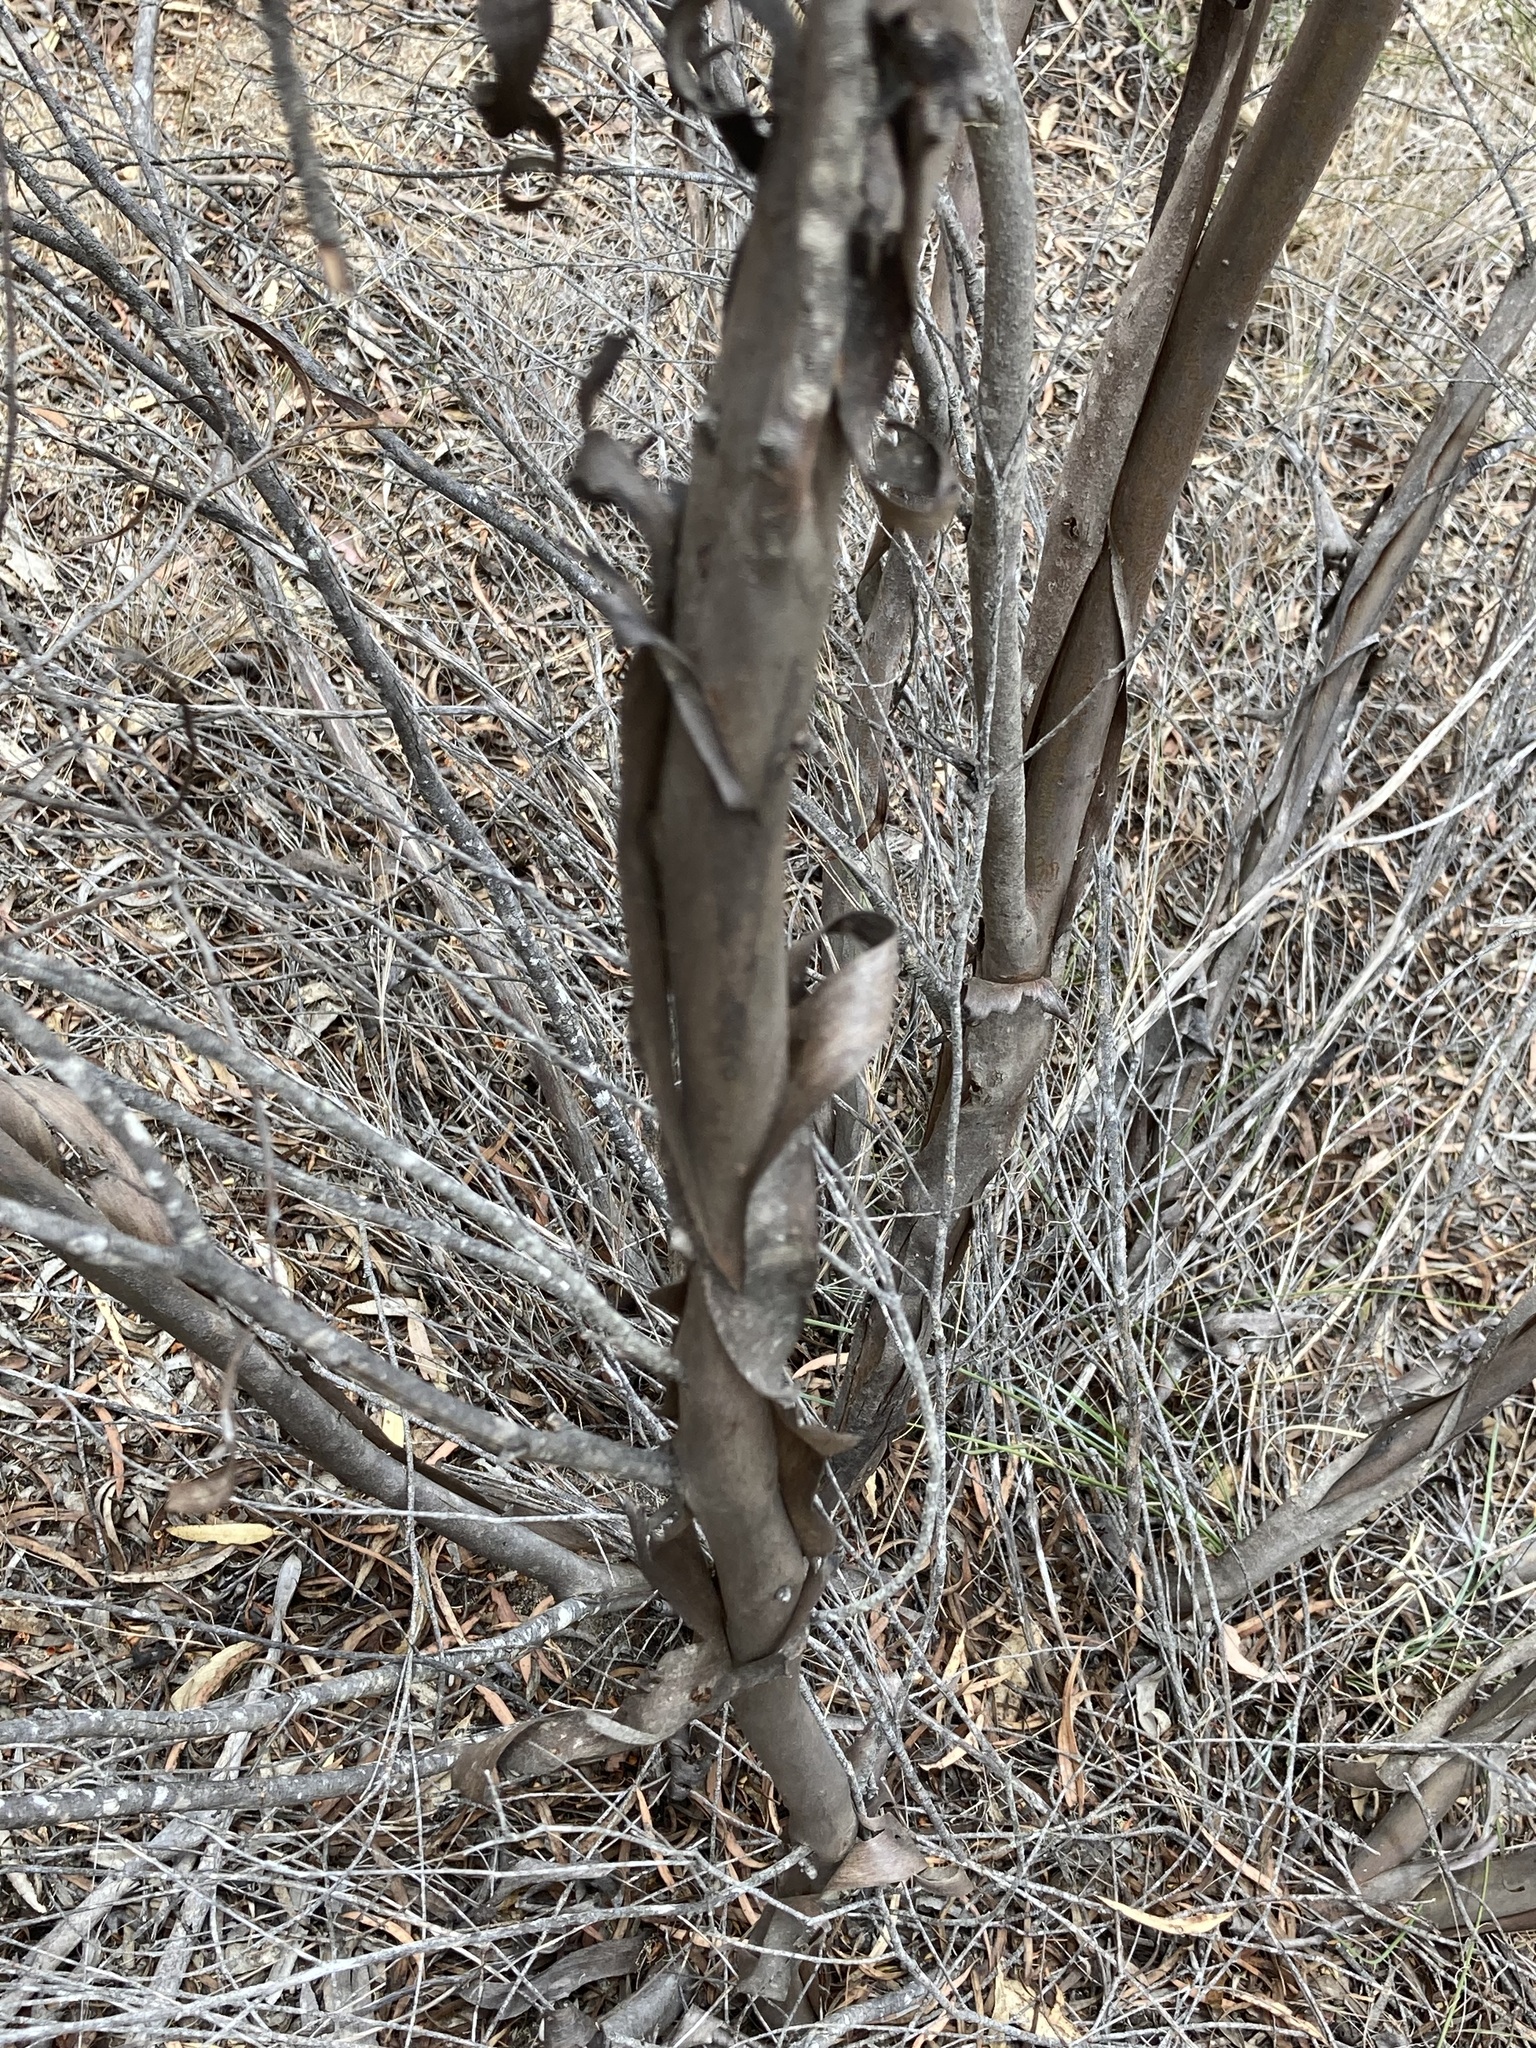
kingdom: Plantae
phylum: Tracheophyta
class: Magnoliopsida
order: Myrtales
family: Myrtaceae
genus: Eucalyptus
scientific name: Eucalyptus xanthonema
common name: Needilup mallee
